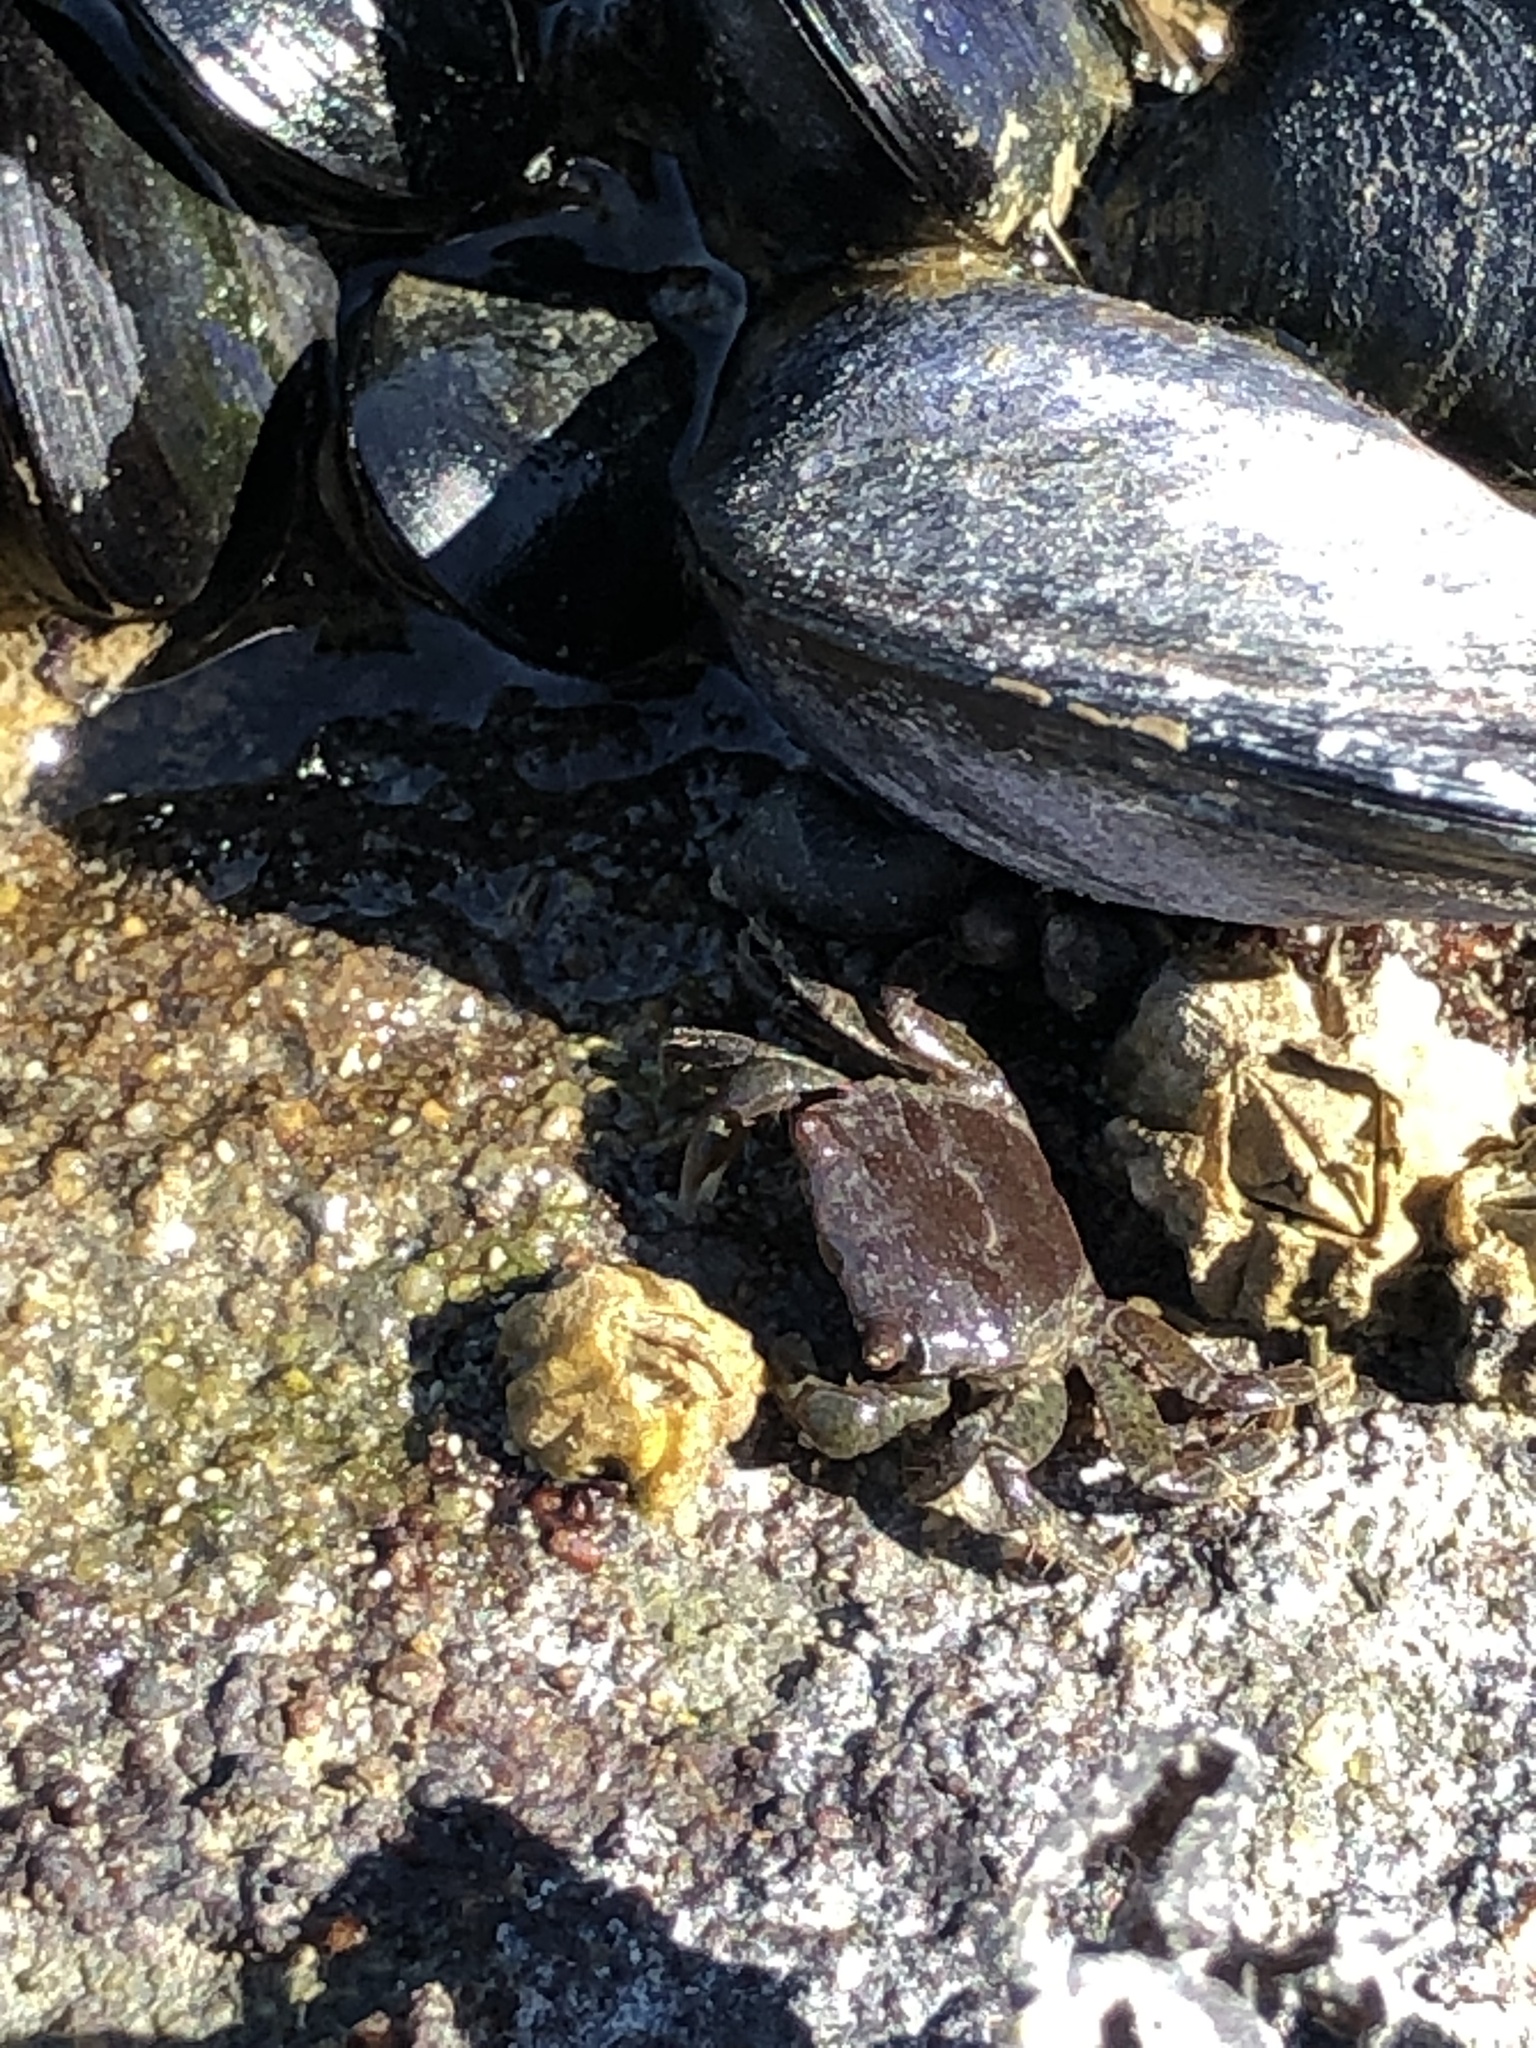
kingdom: Animalia
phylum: Arthropoda
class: Malacostraca
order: Decapoda
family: Varunidae
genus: Hemigrapsus
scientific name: Hemigrapsus oregonensis
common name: Yellow shore crab
